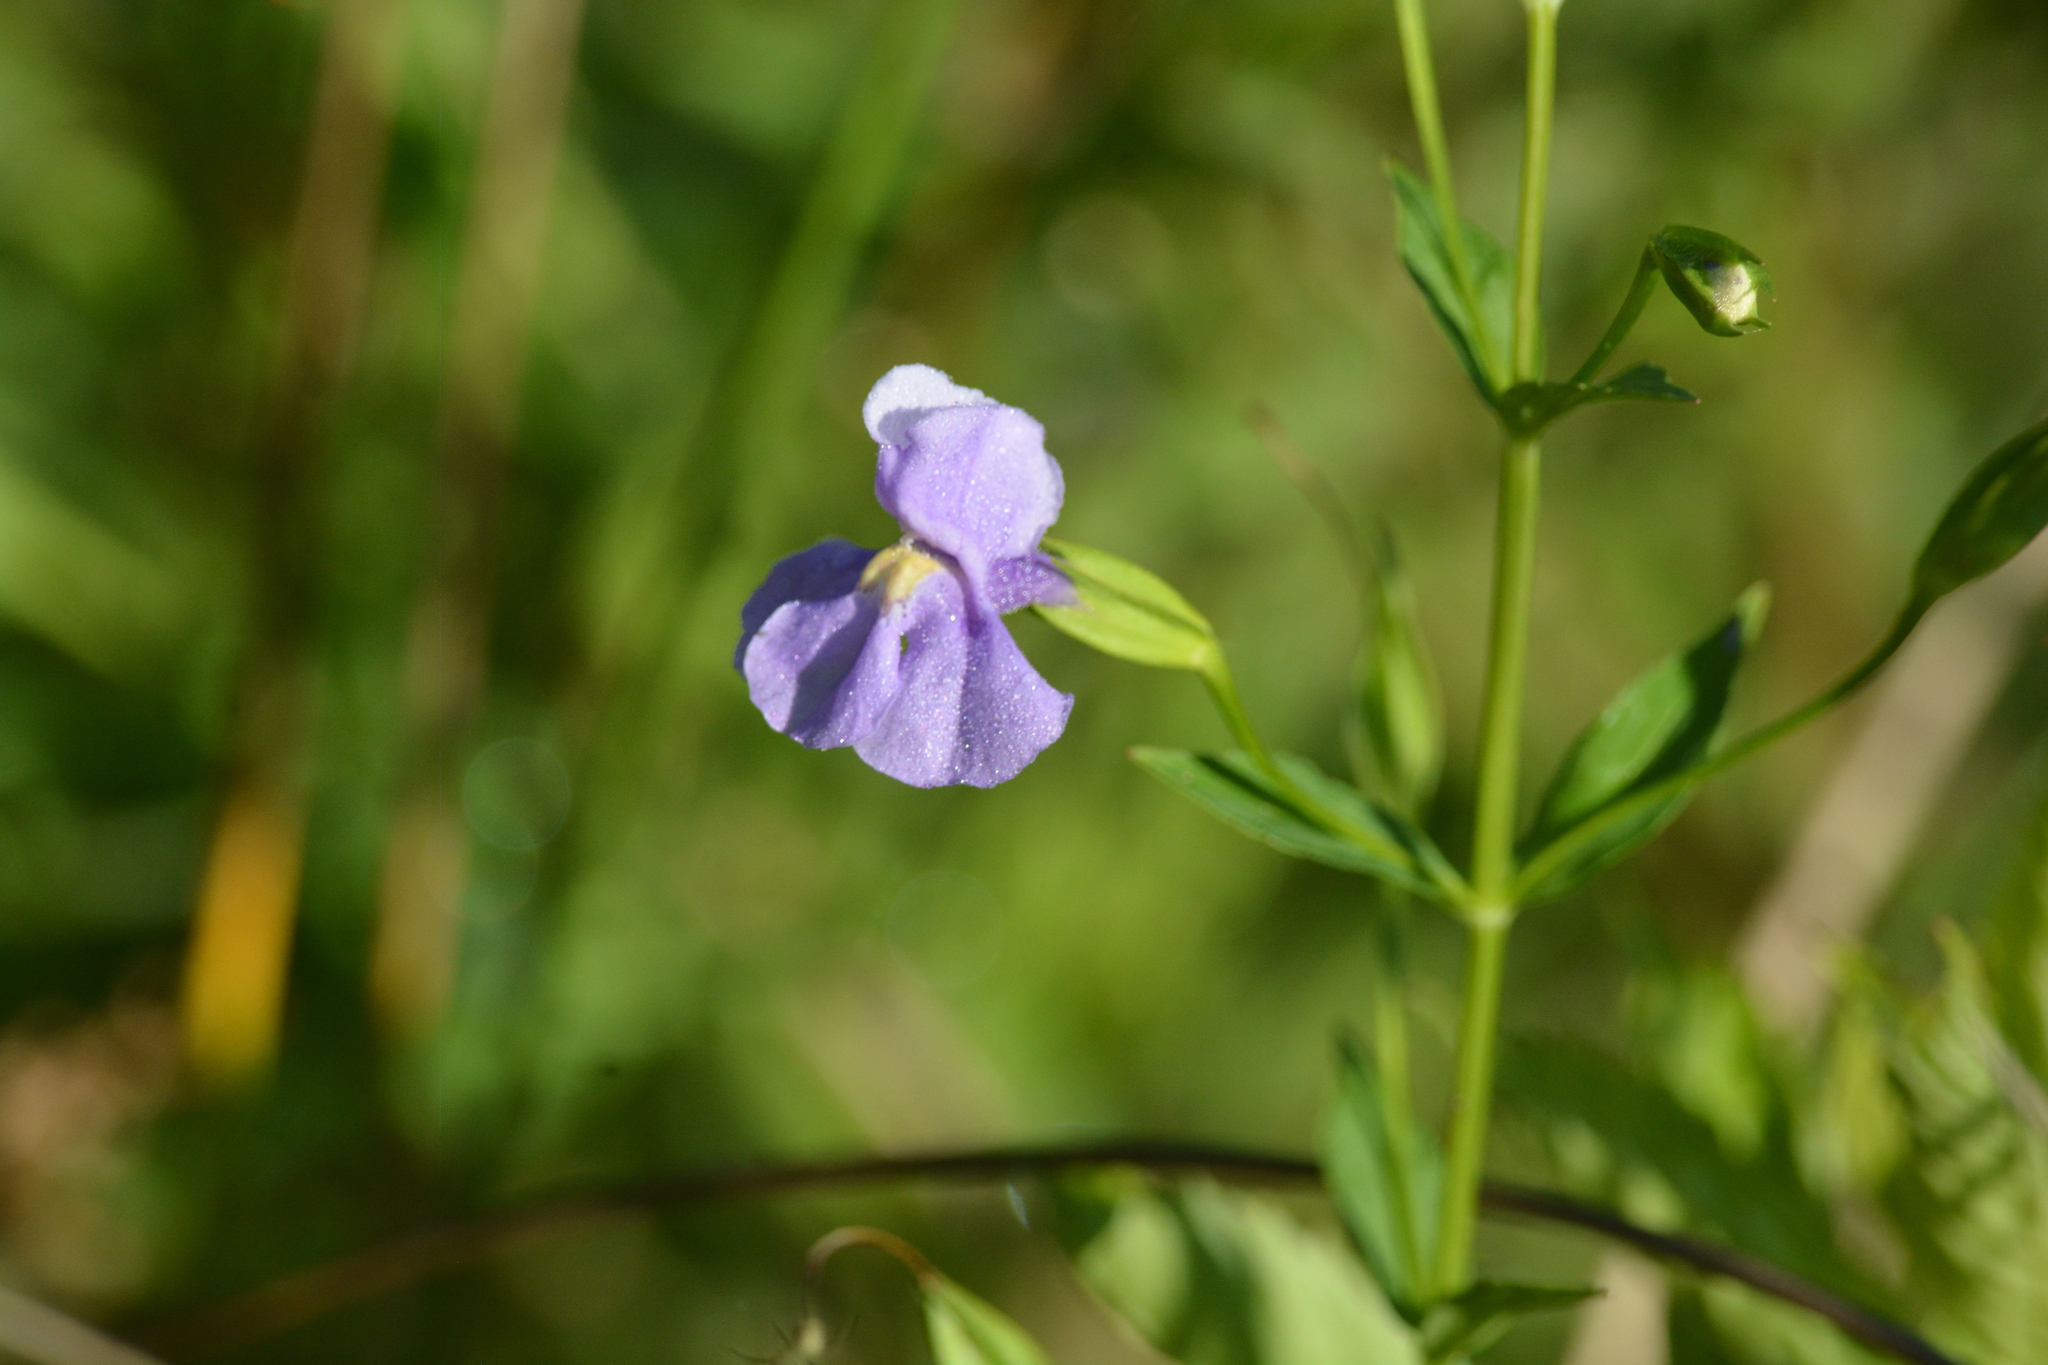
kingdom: Plantae
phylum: Tracheophyta
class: Magnoliopsida
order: Lamiales
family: Phrymaceae
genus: Mimulus
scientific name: Mimulus ringens
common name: Allegheny monkeyflower
